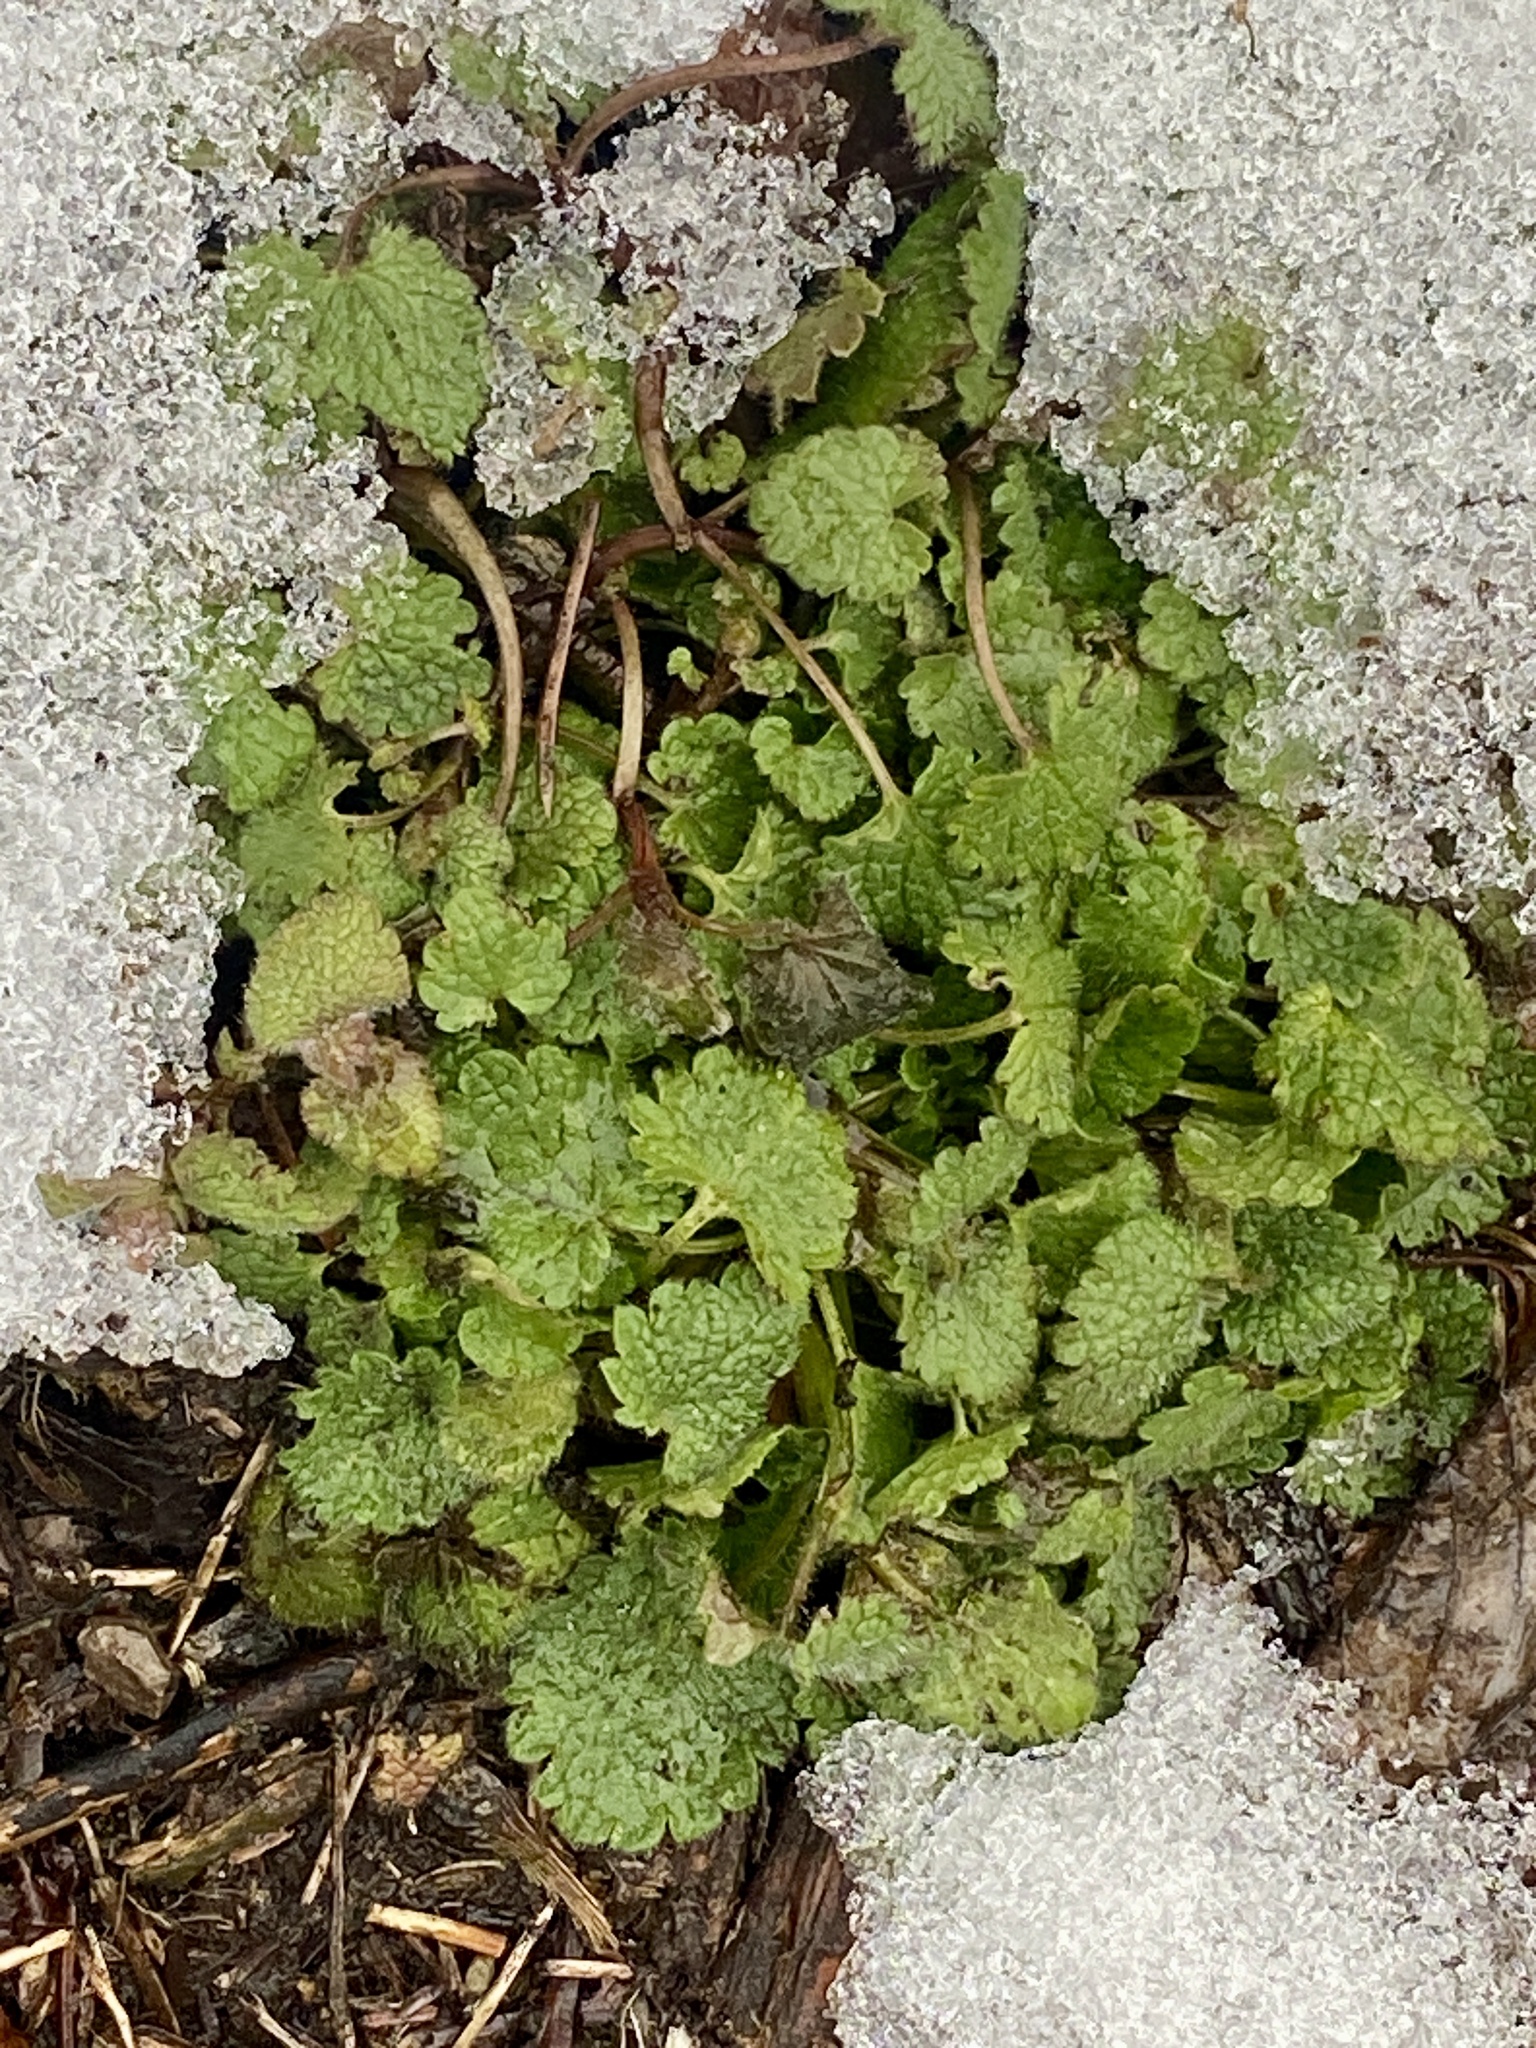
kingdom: Plantae
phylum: Tracheophyta
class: Magnoliopsida
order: Lamiales
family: Lamiaceae
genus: Lamium
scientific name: Lamium purpureum
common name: Red dead-nettle
